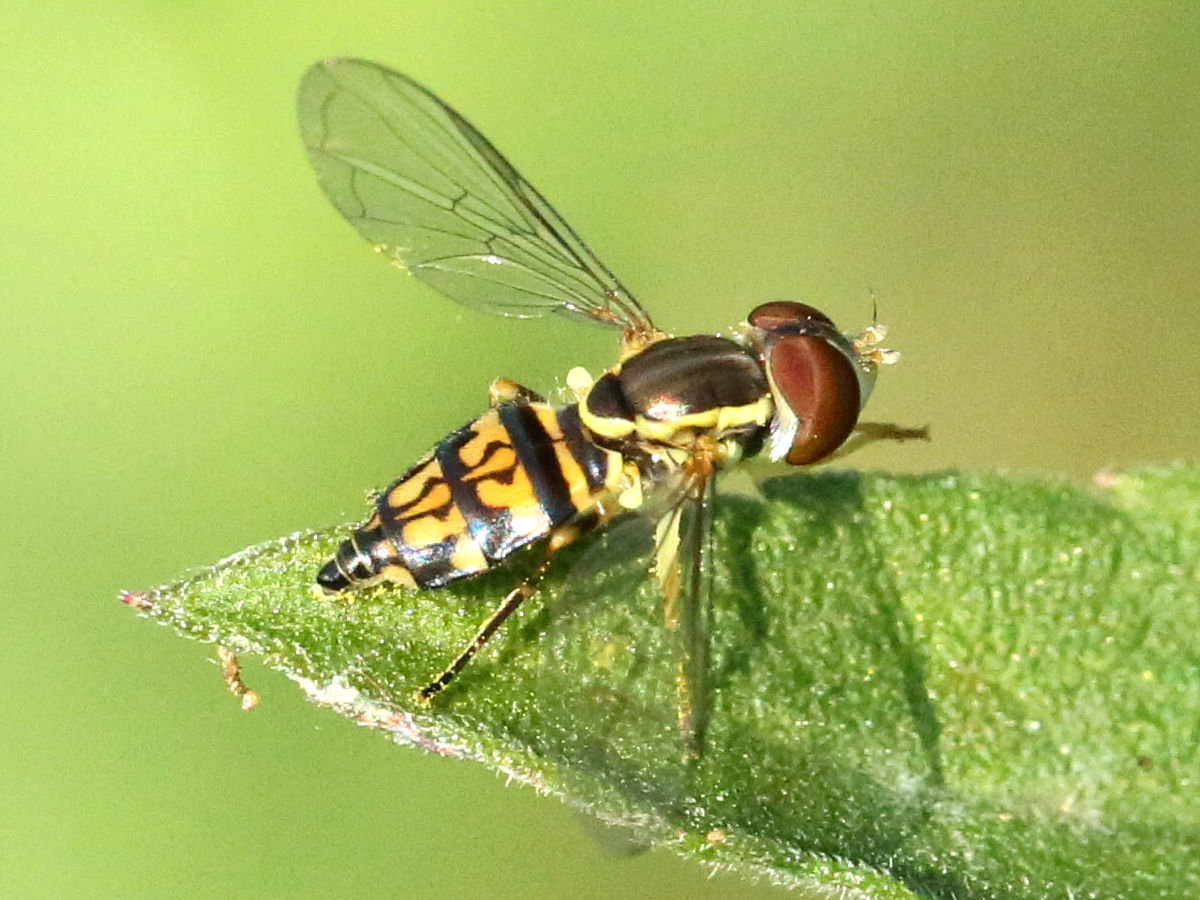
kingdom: Animalia
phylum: Arthropoda
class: Insecta
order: Diptera
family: Syrphidae
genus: Toxomerus
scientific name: Toxomerus geminatus
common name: Eastern calligrapher
